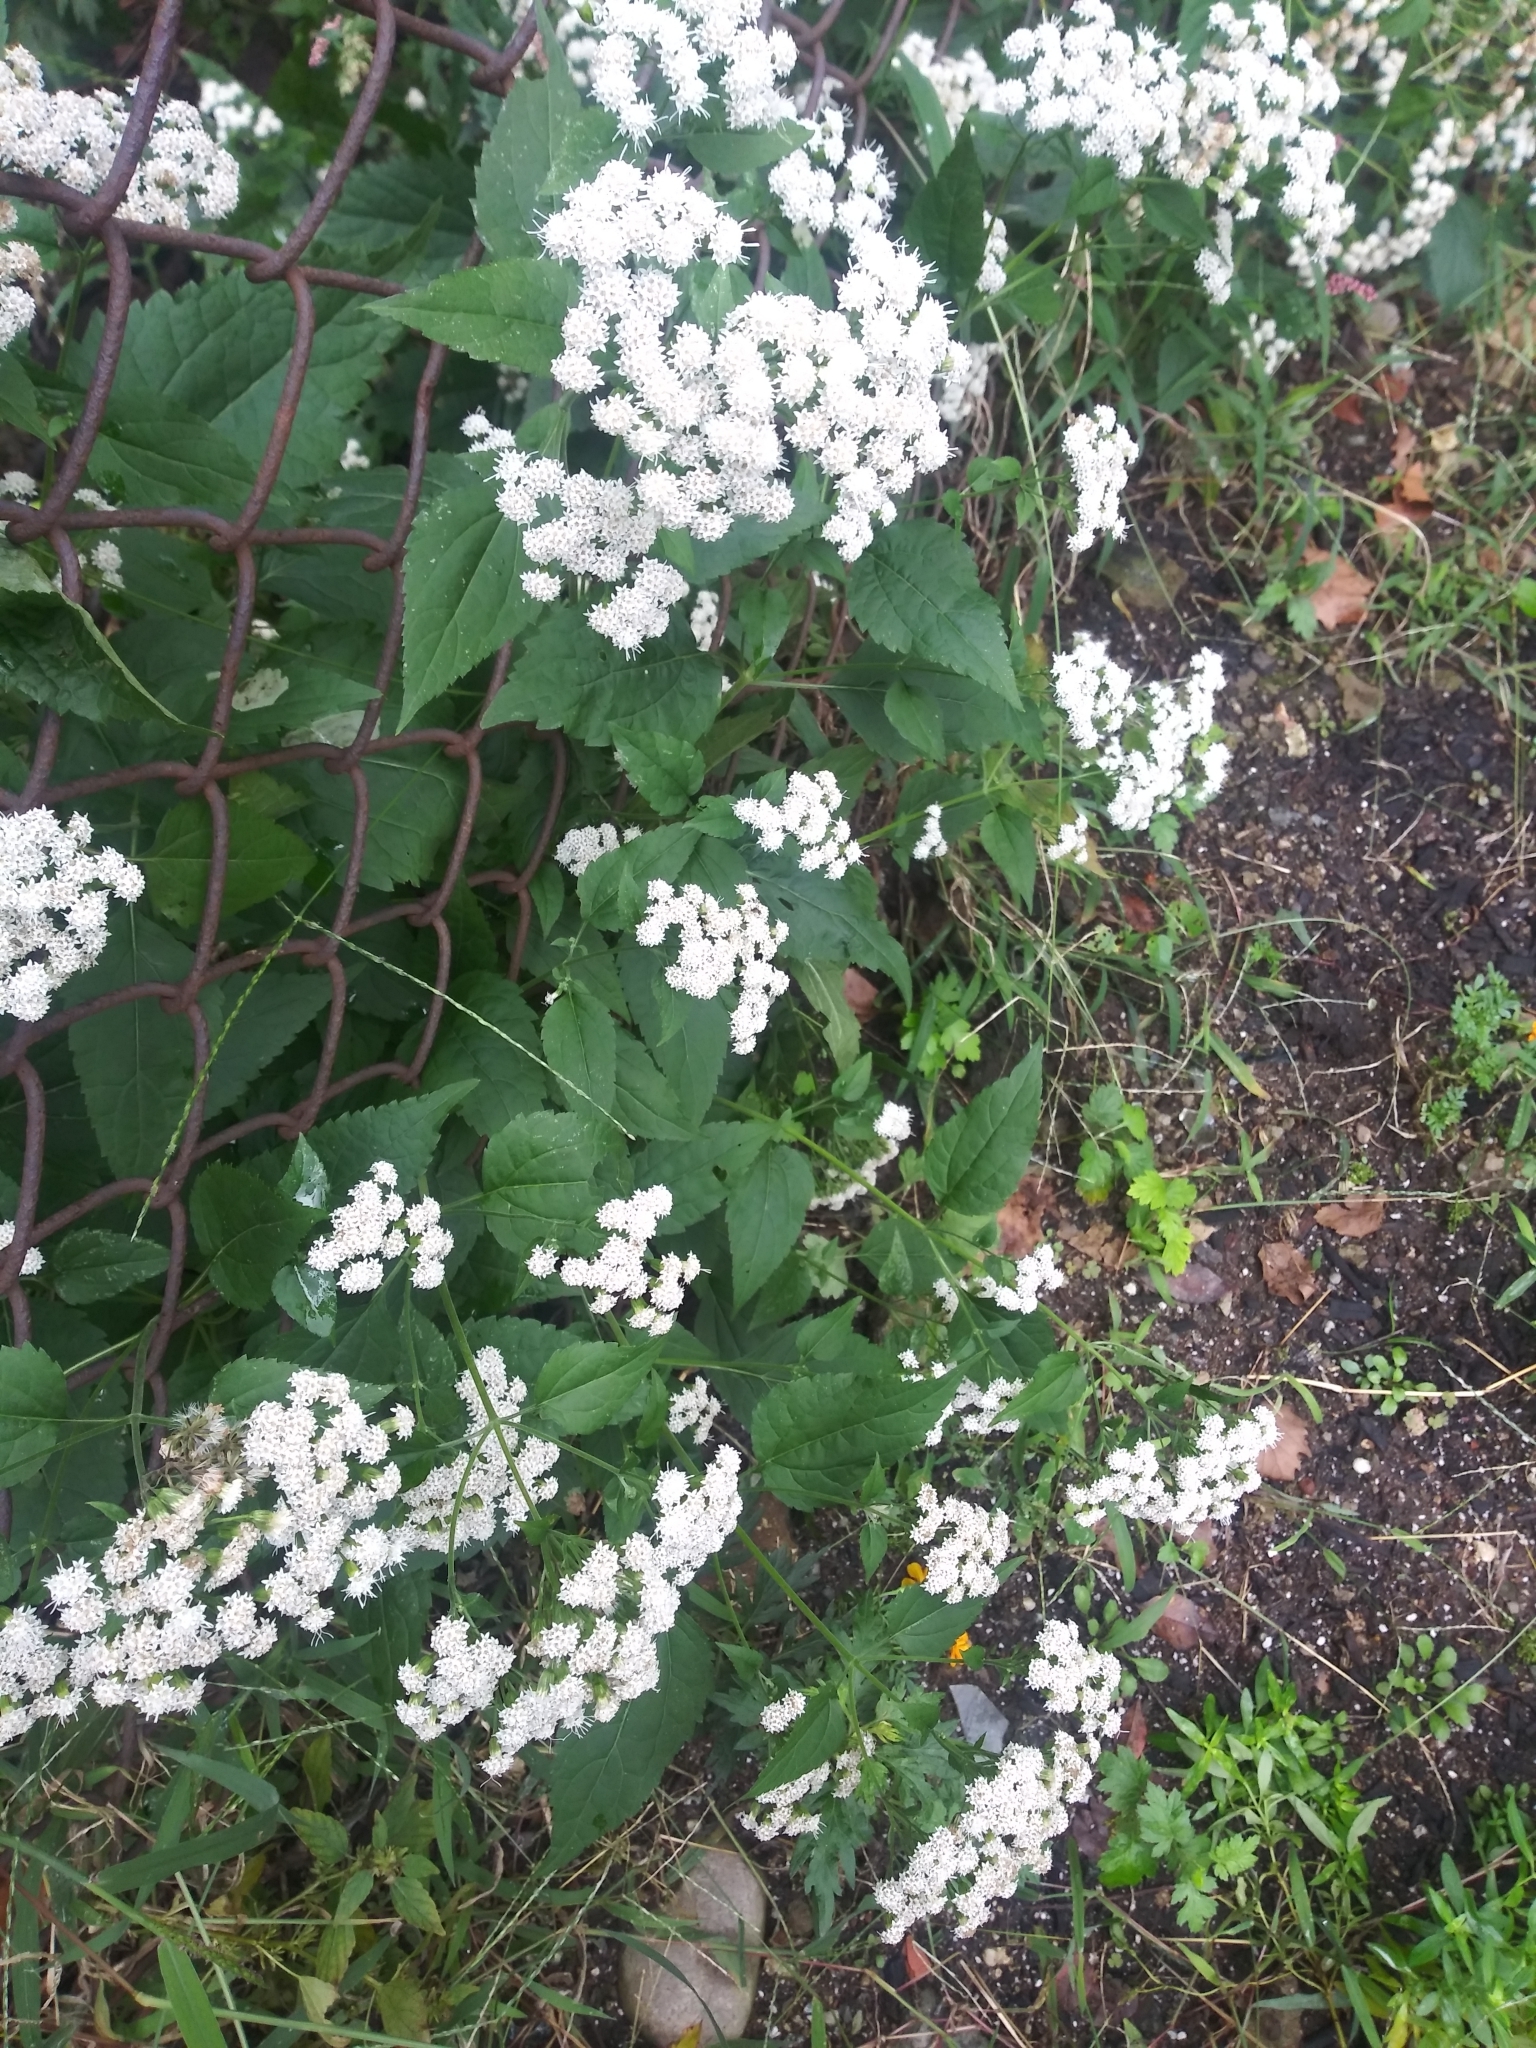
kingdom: Plantae
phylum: Tracheophyta
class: Magnoliopsida
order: Asterales
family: Asteraceae
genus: Ageratina
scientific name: Ageratina altissima
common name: White snakeroot
